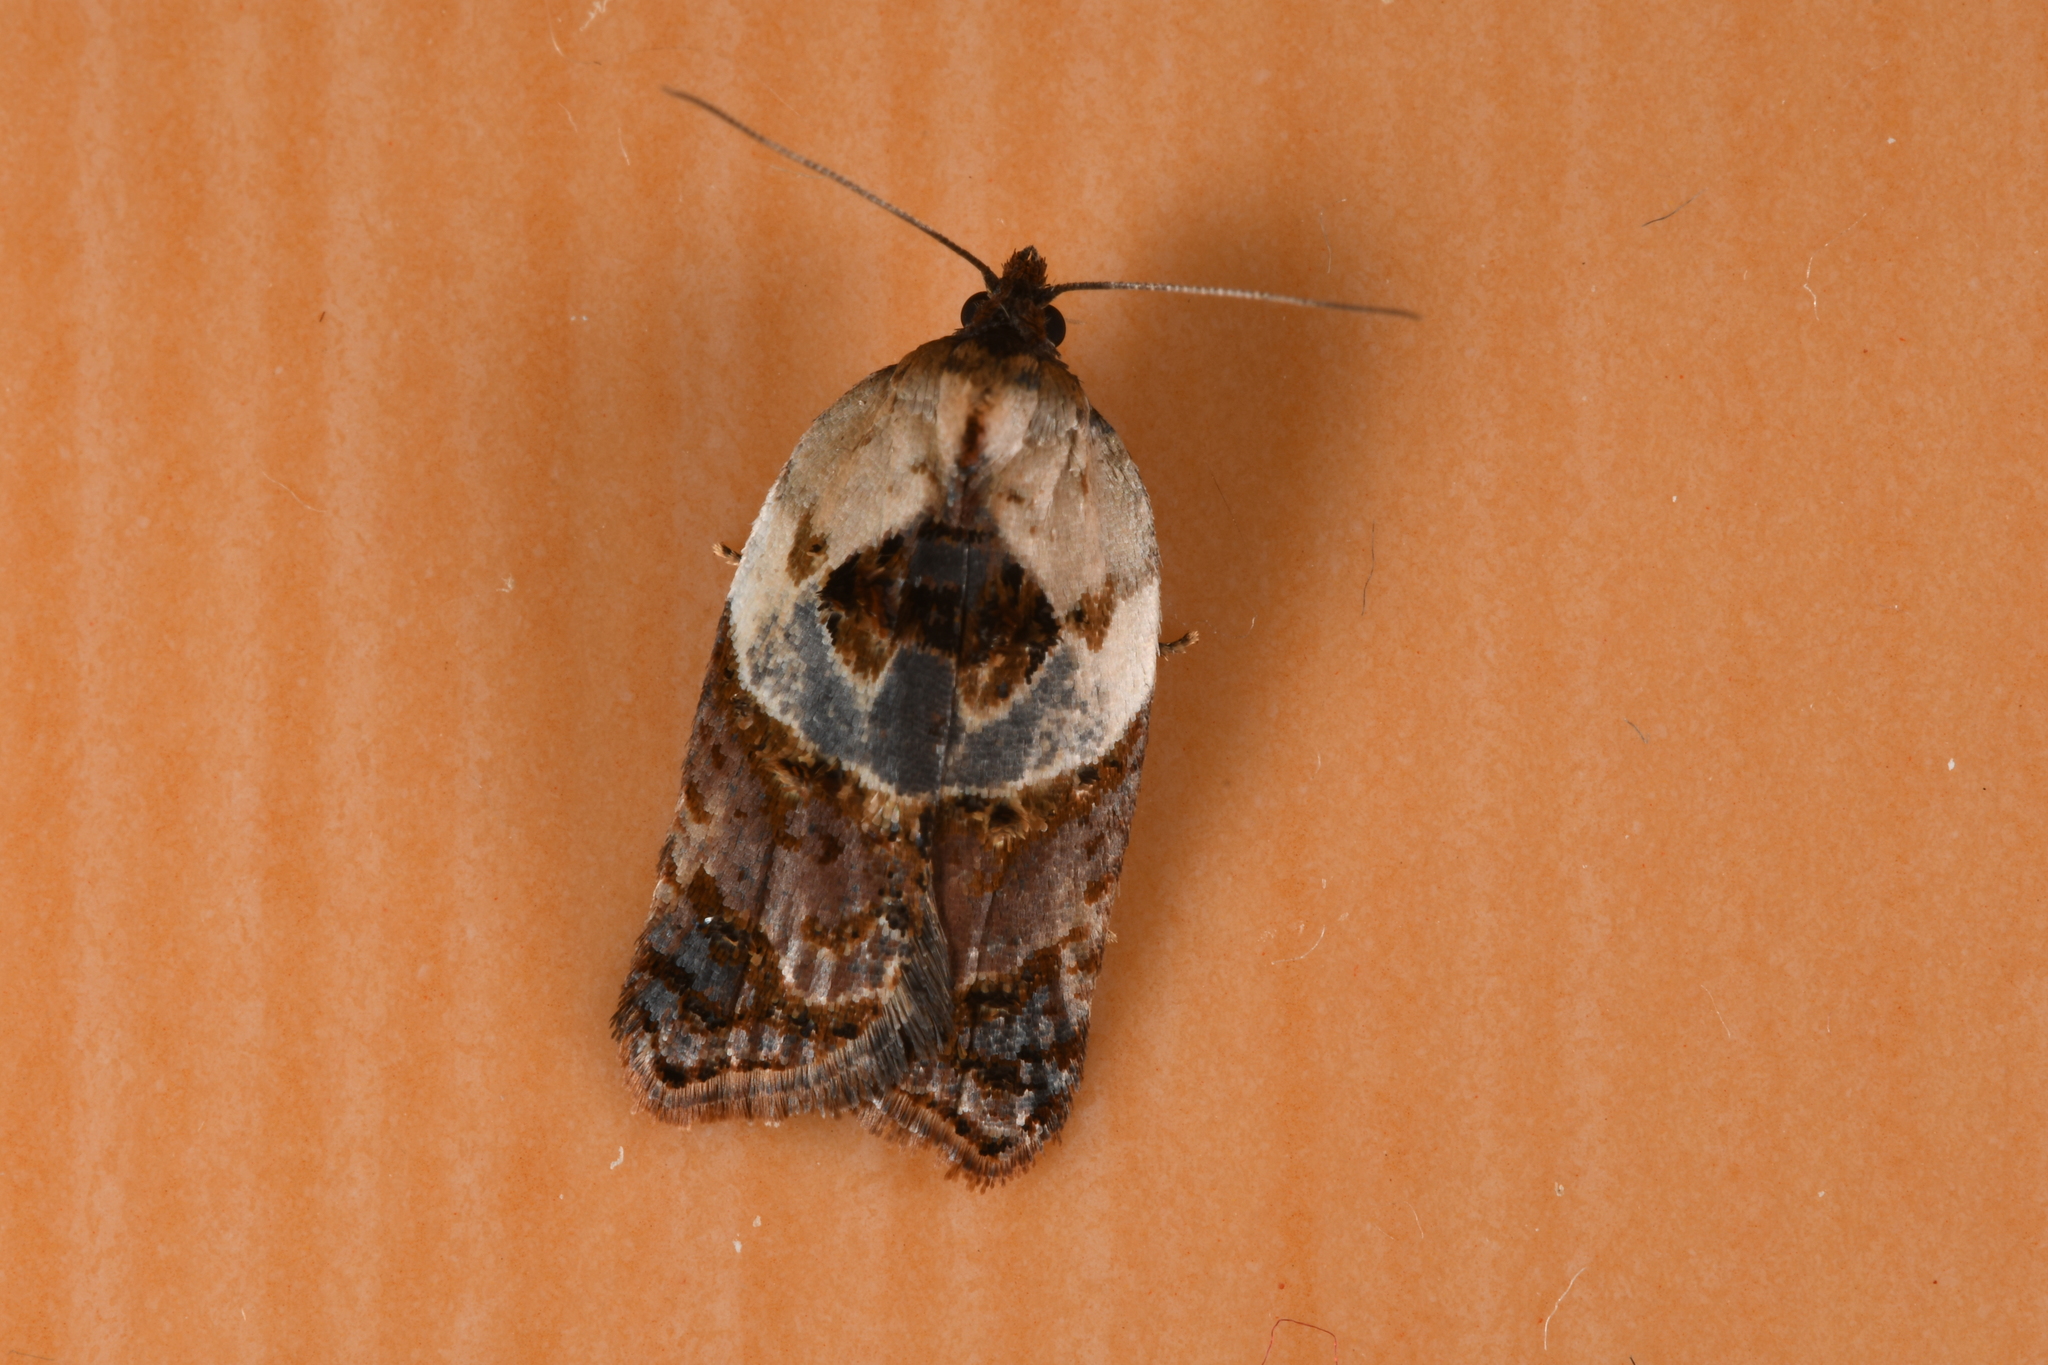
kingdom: Animalia
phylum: Arthropoda
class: Insecta
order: Lepidoptera
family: Tortricidae
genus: Acleris
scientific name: Acleris variegana
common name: Garden rose tortrix
